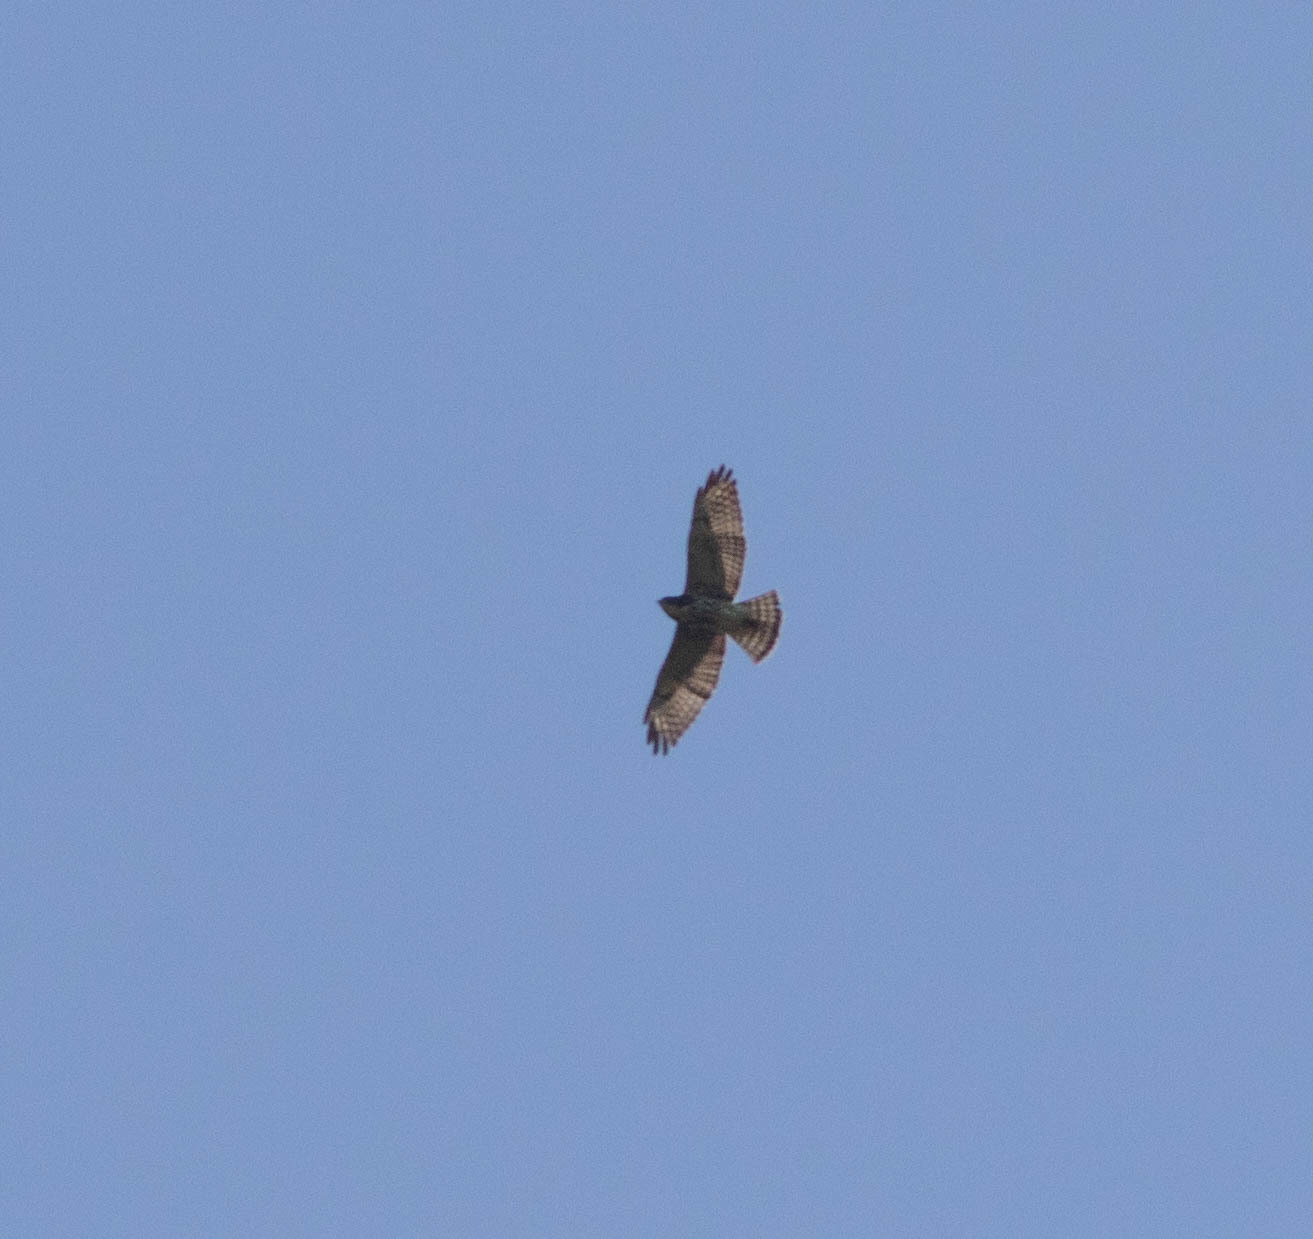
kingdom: Animalia
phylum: Chordata
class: Aves
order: Accipitriformes
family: Accipitridae
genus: Buteo
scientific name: Buteo platypterus
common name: Broad-winged hawk
